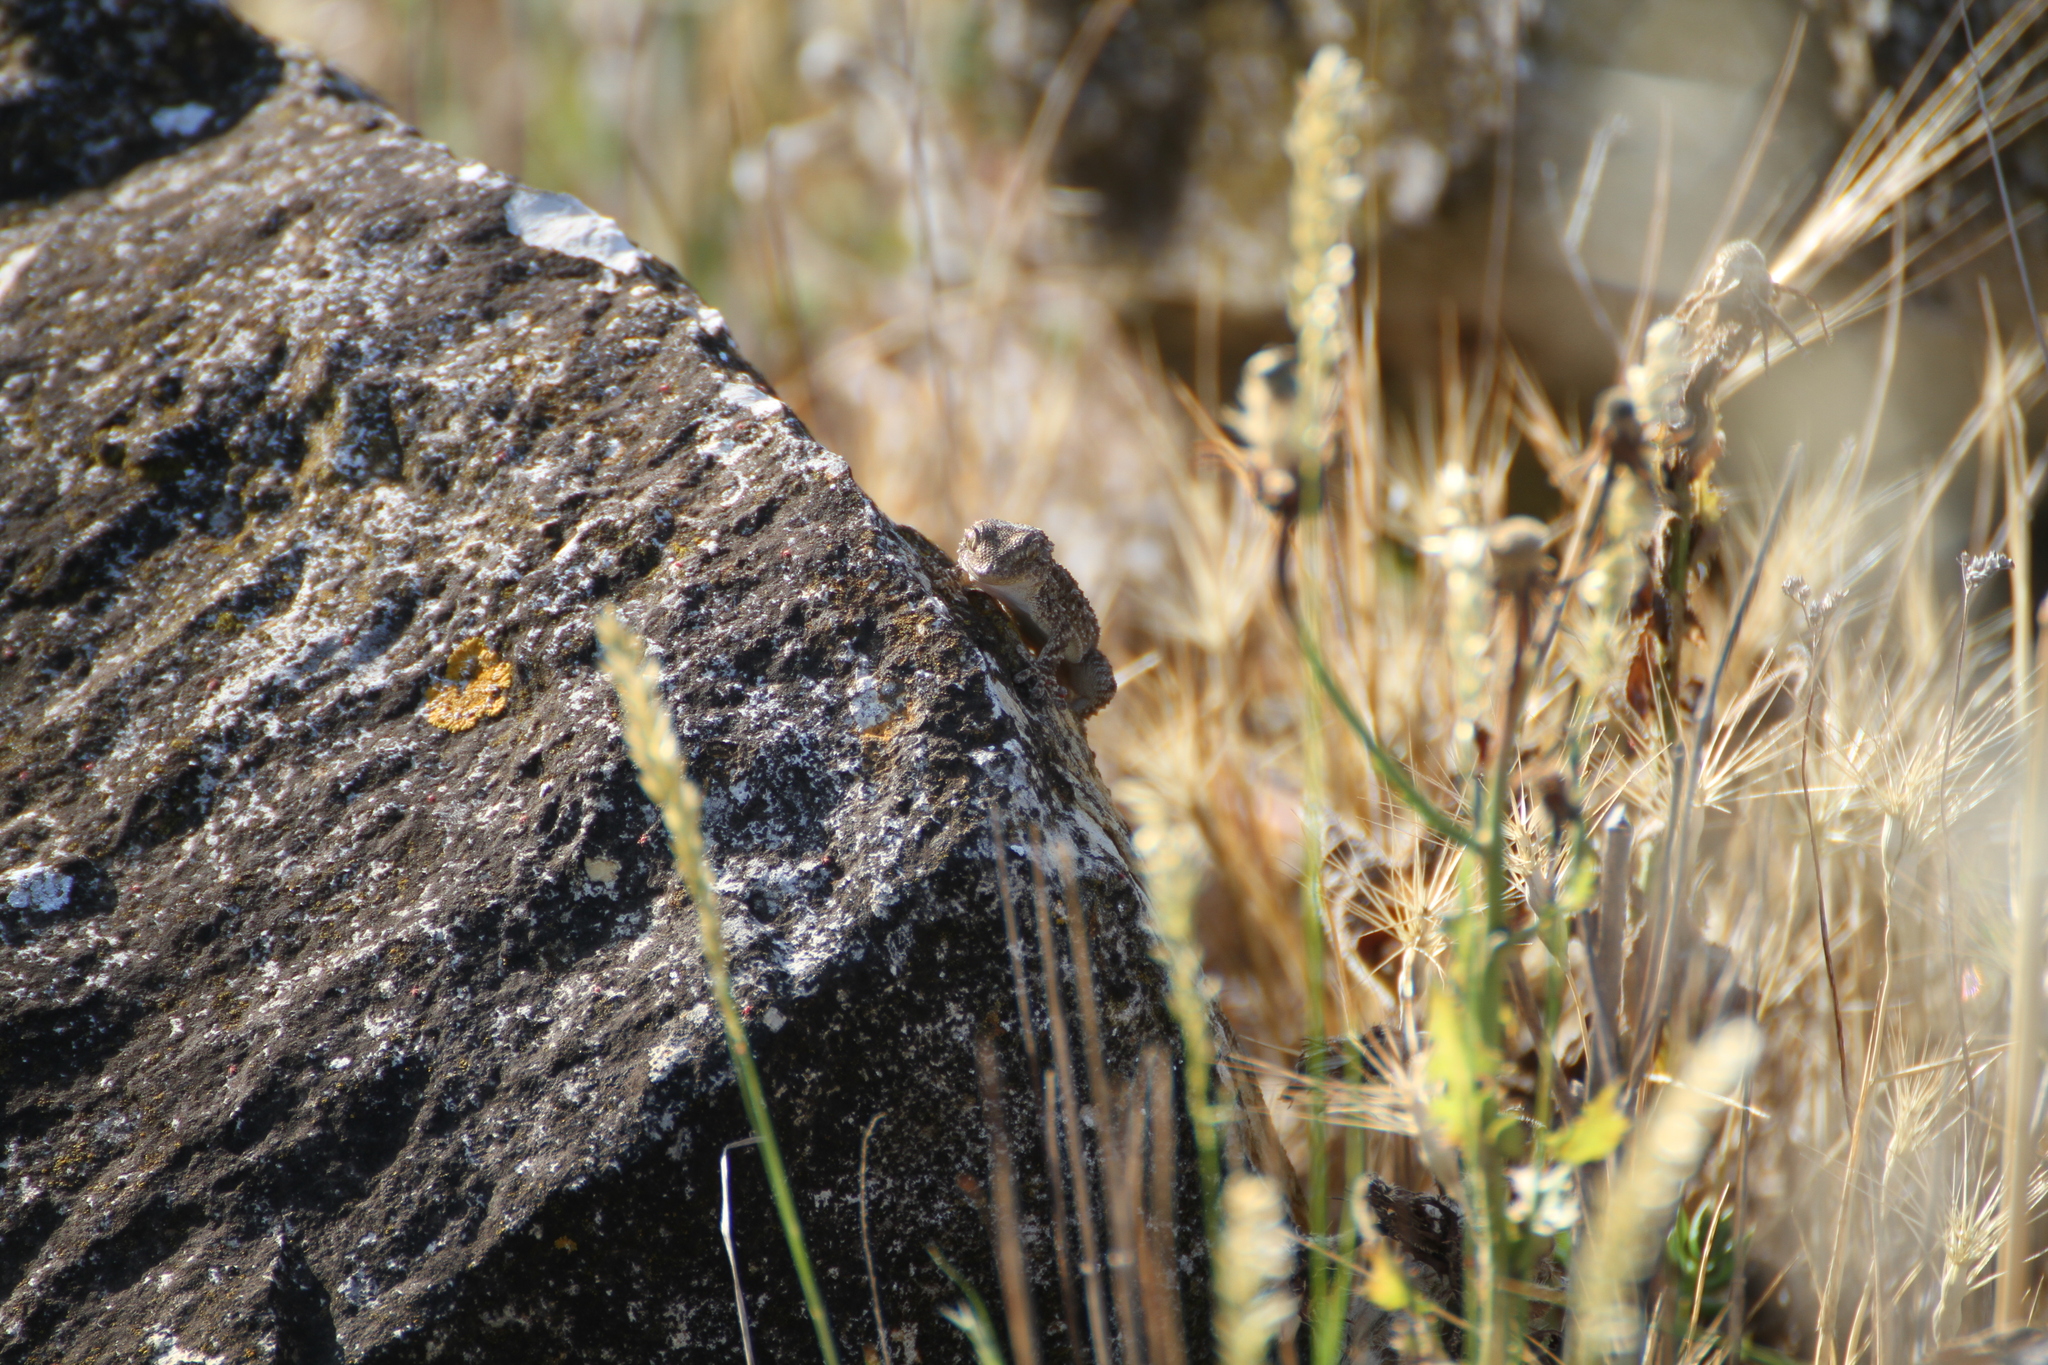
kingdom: Animalia
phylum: Chordata
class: Squamata
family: Phyllodactylidae
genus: Tarentola
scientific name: Tarentola mauritanica
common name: Moorish gecko
